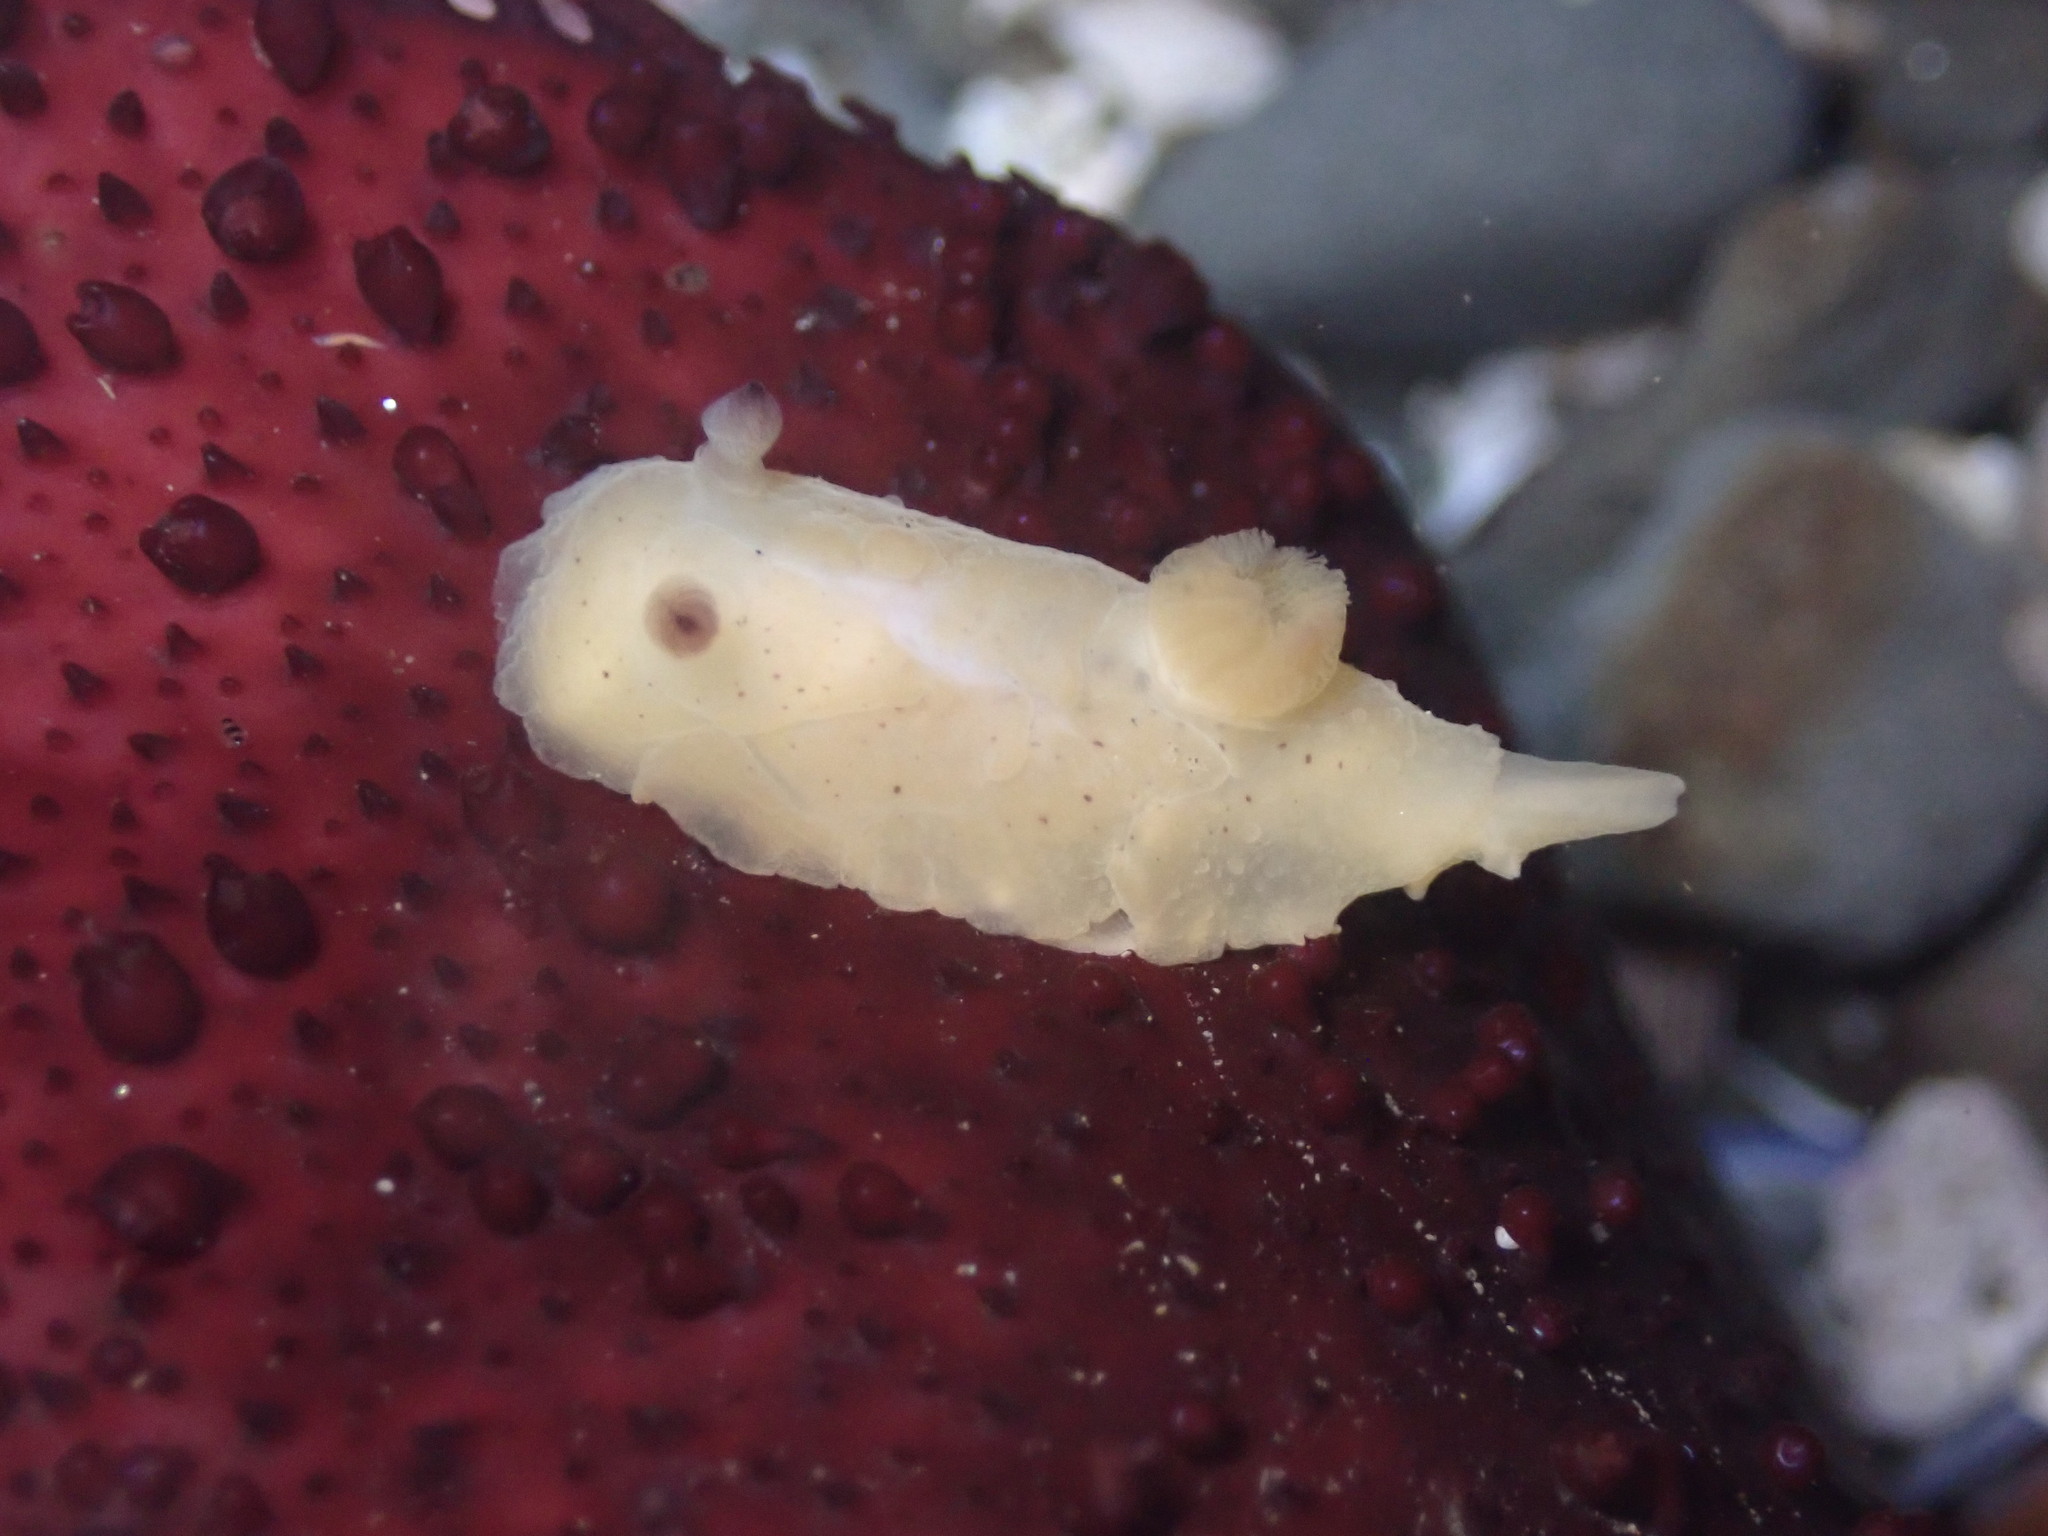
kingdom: Animalia
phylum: Mollusca
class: Gastropoda
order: Nudibranchia
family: Actinocyclidae
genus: Hallaxa
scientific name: Hallaxa chani
